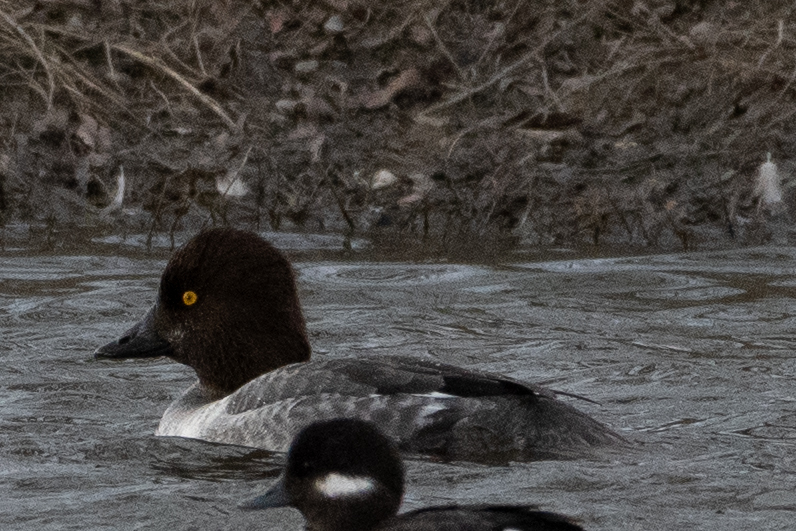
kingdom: Animalia
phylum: Chordata
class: Aves
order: Anseriformes
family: Anatidae
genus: Bucephala
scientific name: Bucephala clangula
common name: Common goldeneye
